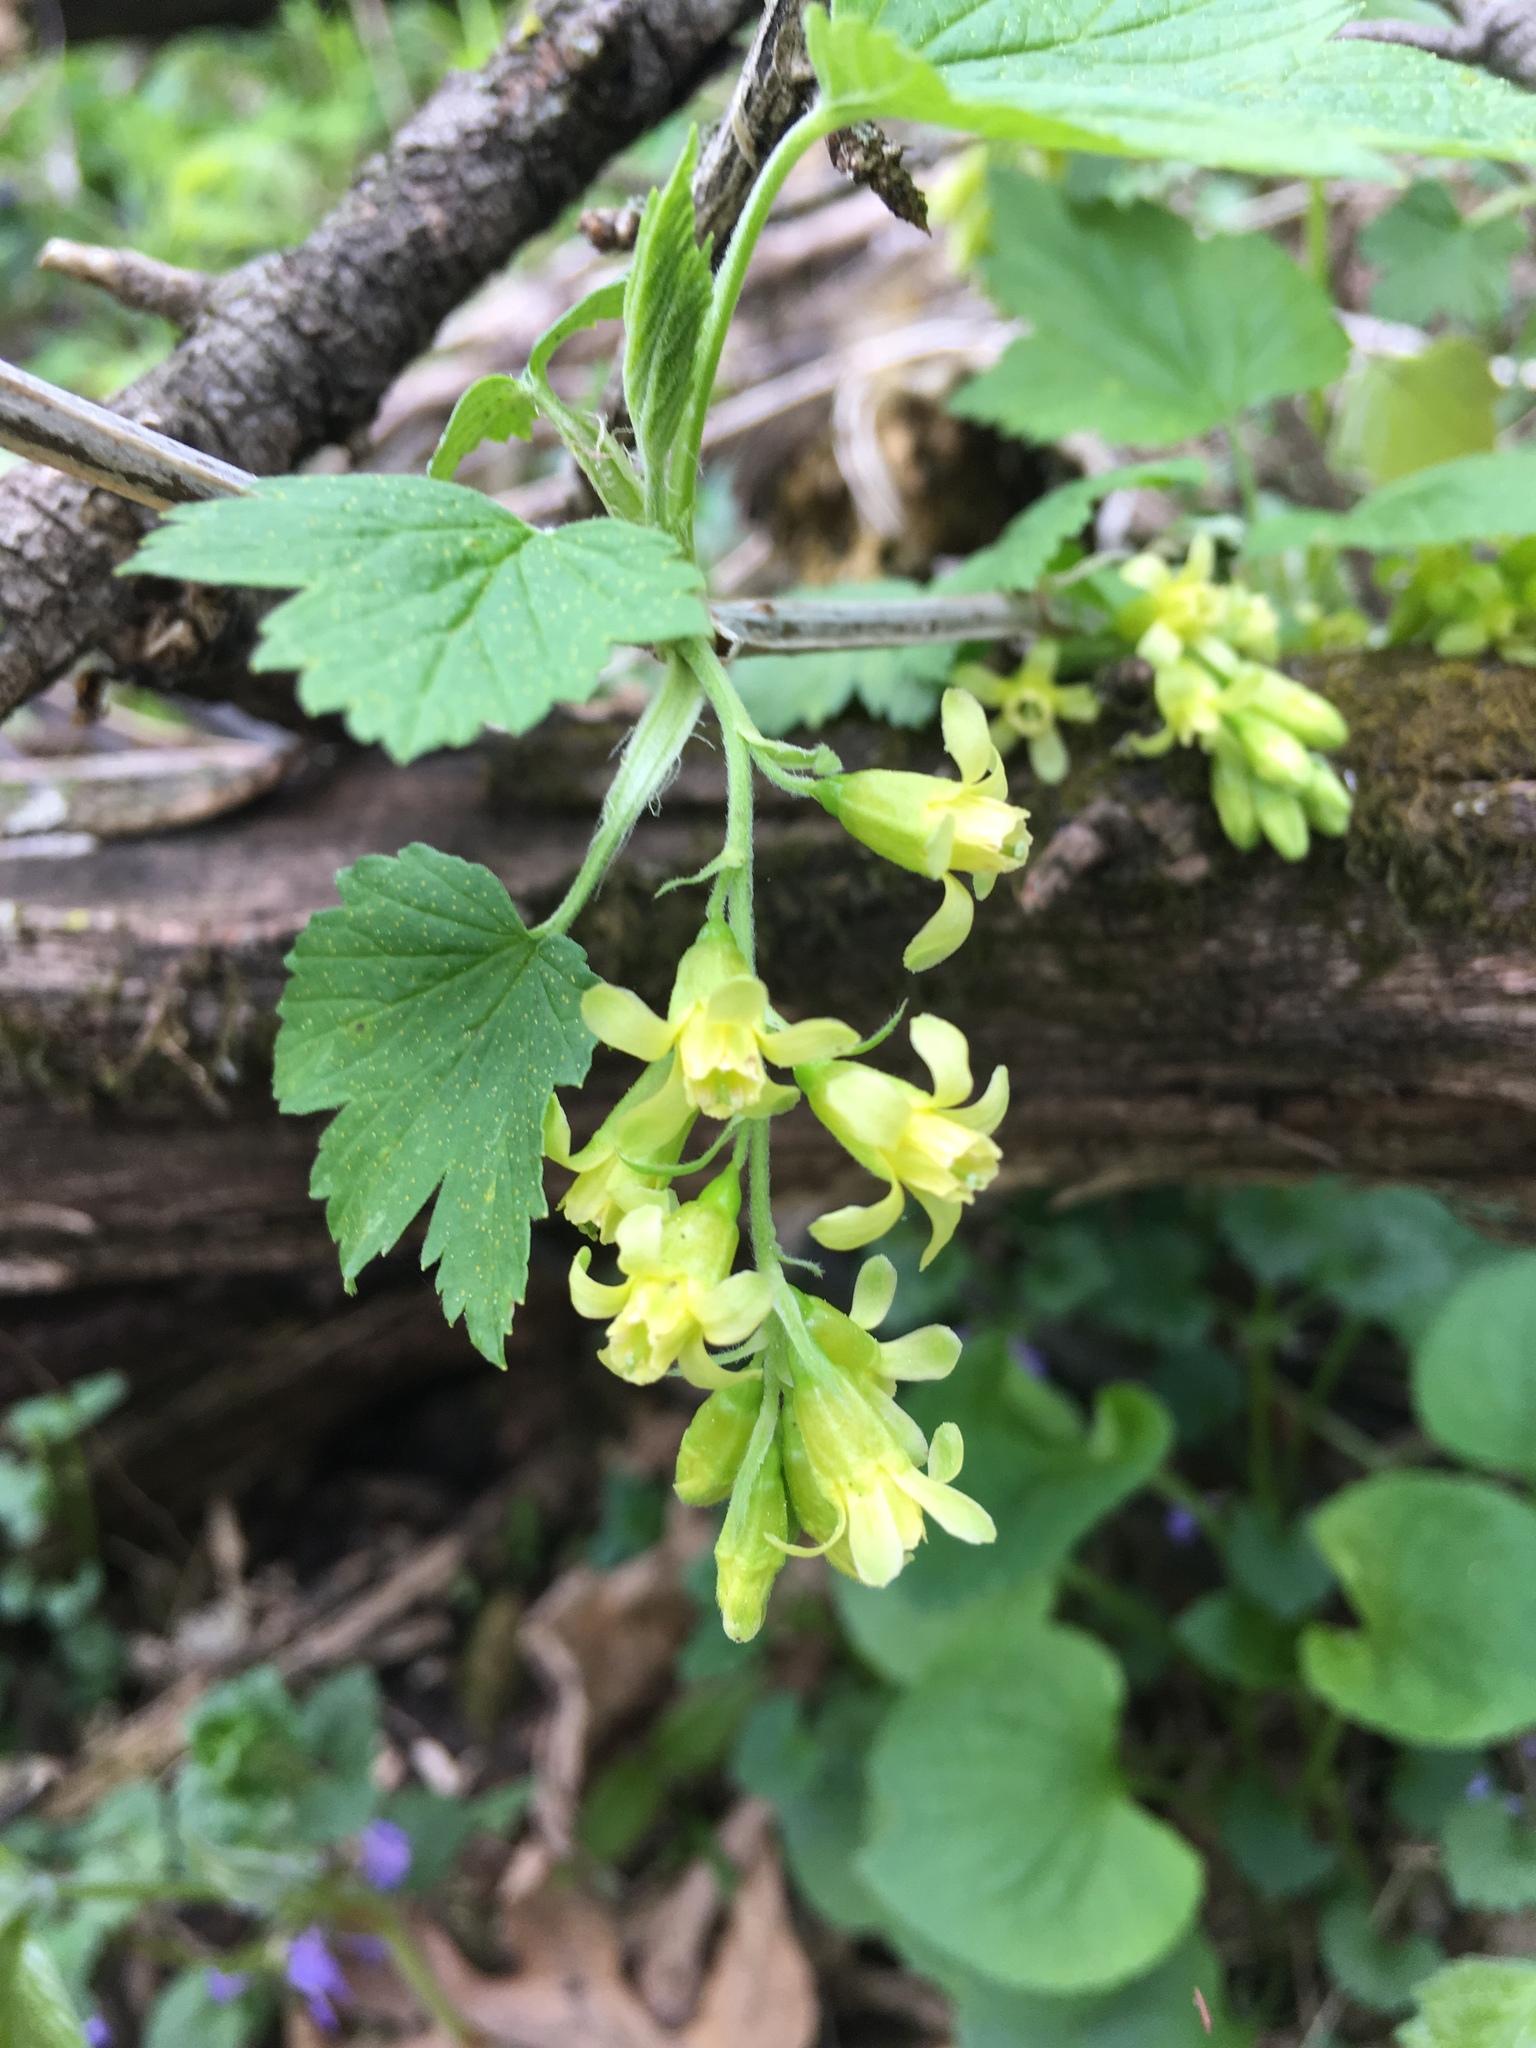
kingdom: Plantae
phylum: Tracheophyta
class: Magnoliopsida
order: Saxifragales
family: Grossulariaceae
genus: Ribes
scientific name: Ribes americanum
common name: American black currant
